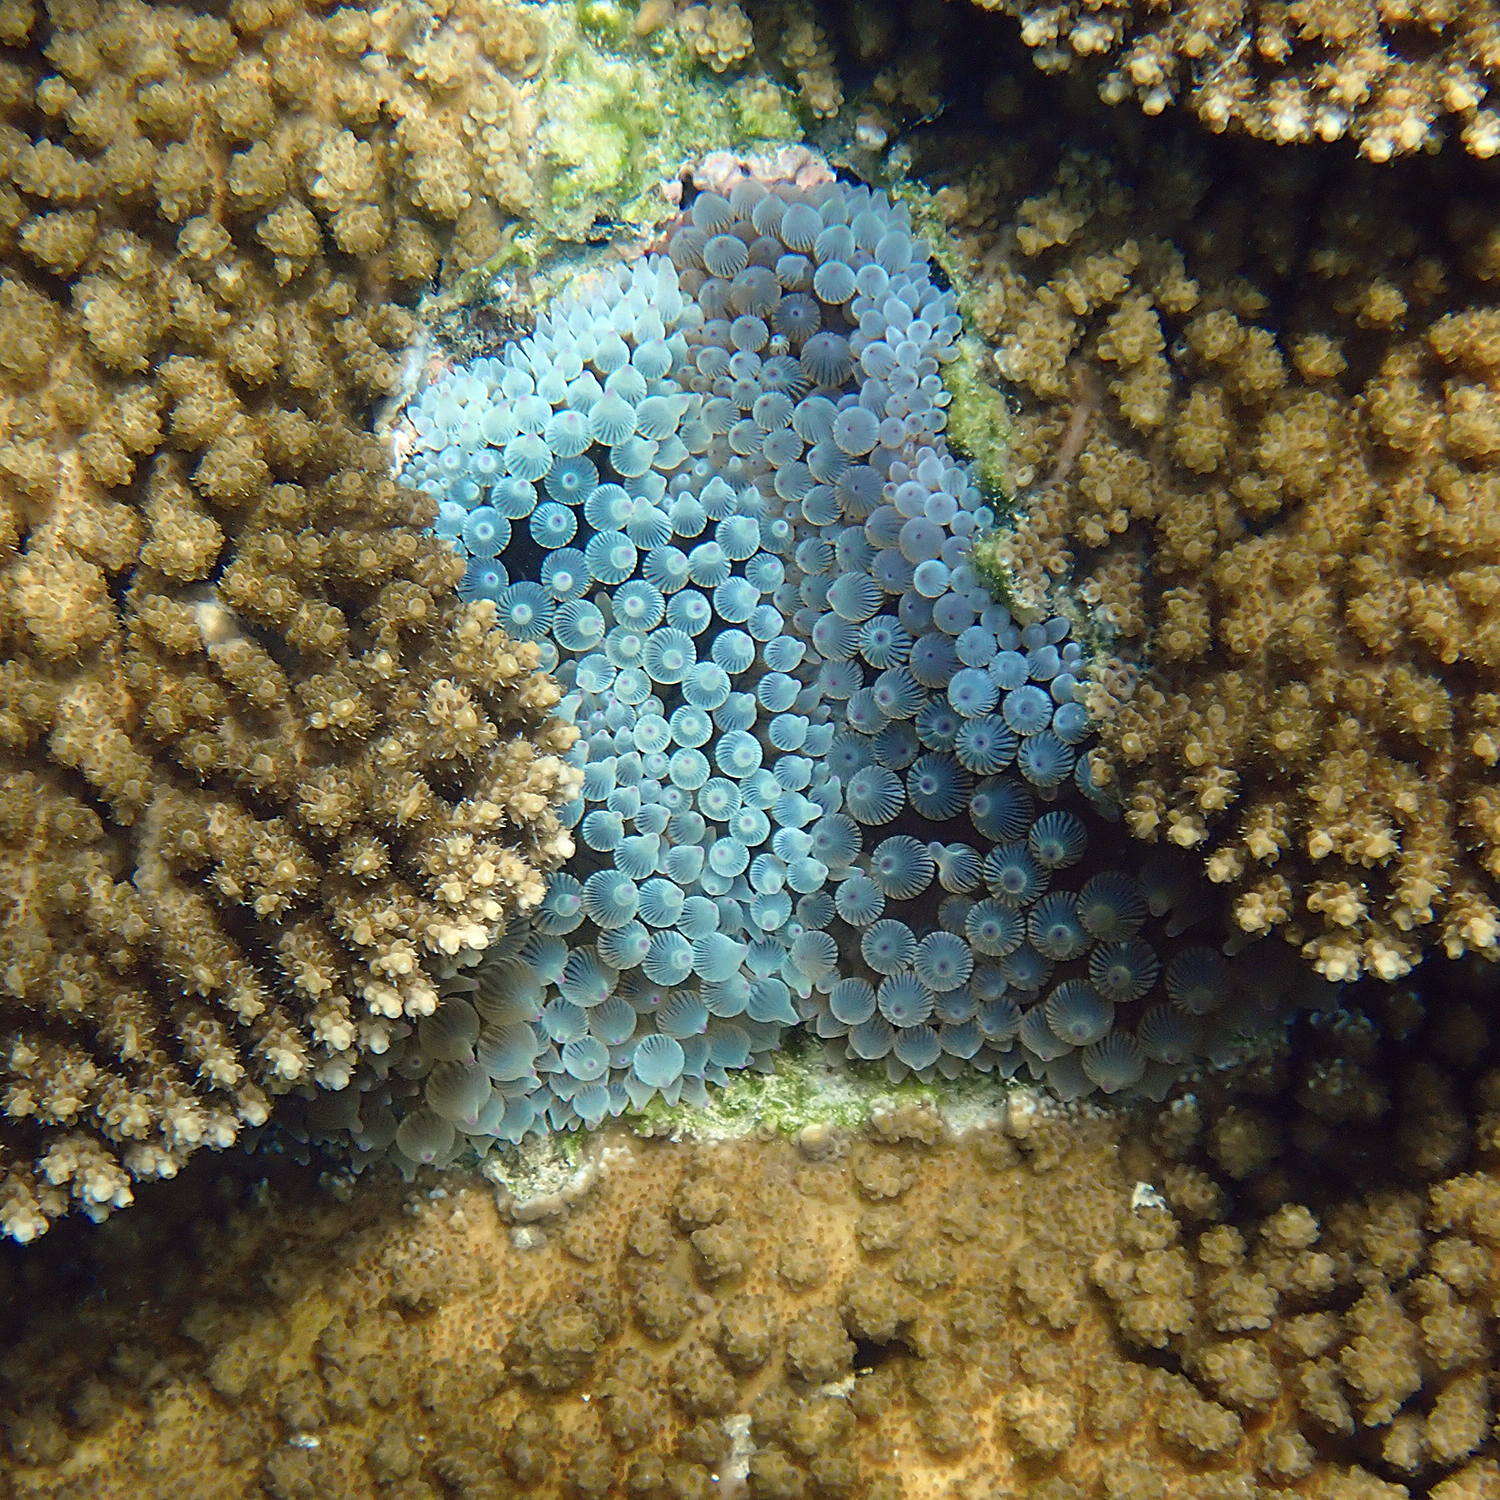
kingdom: Animalia
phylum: Cnidaria
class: Anthozoa
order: Actiniaria
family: Actiniidae
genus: Entacmaea
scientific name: Entacmaea quadricolor
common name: Bulb tentacle sea anemone
